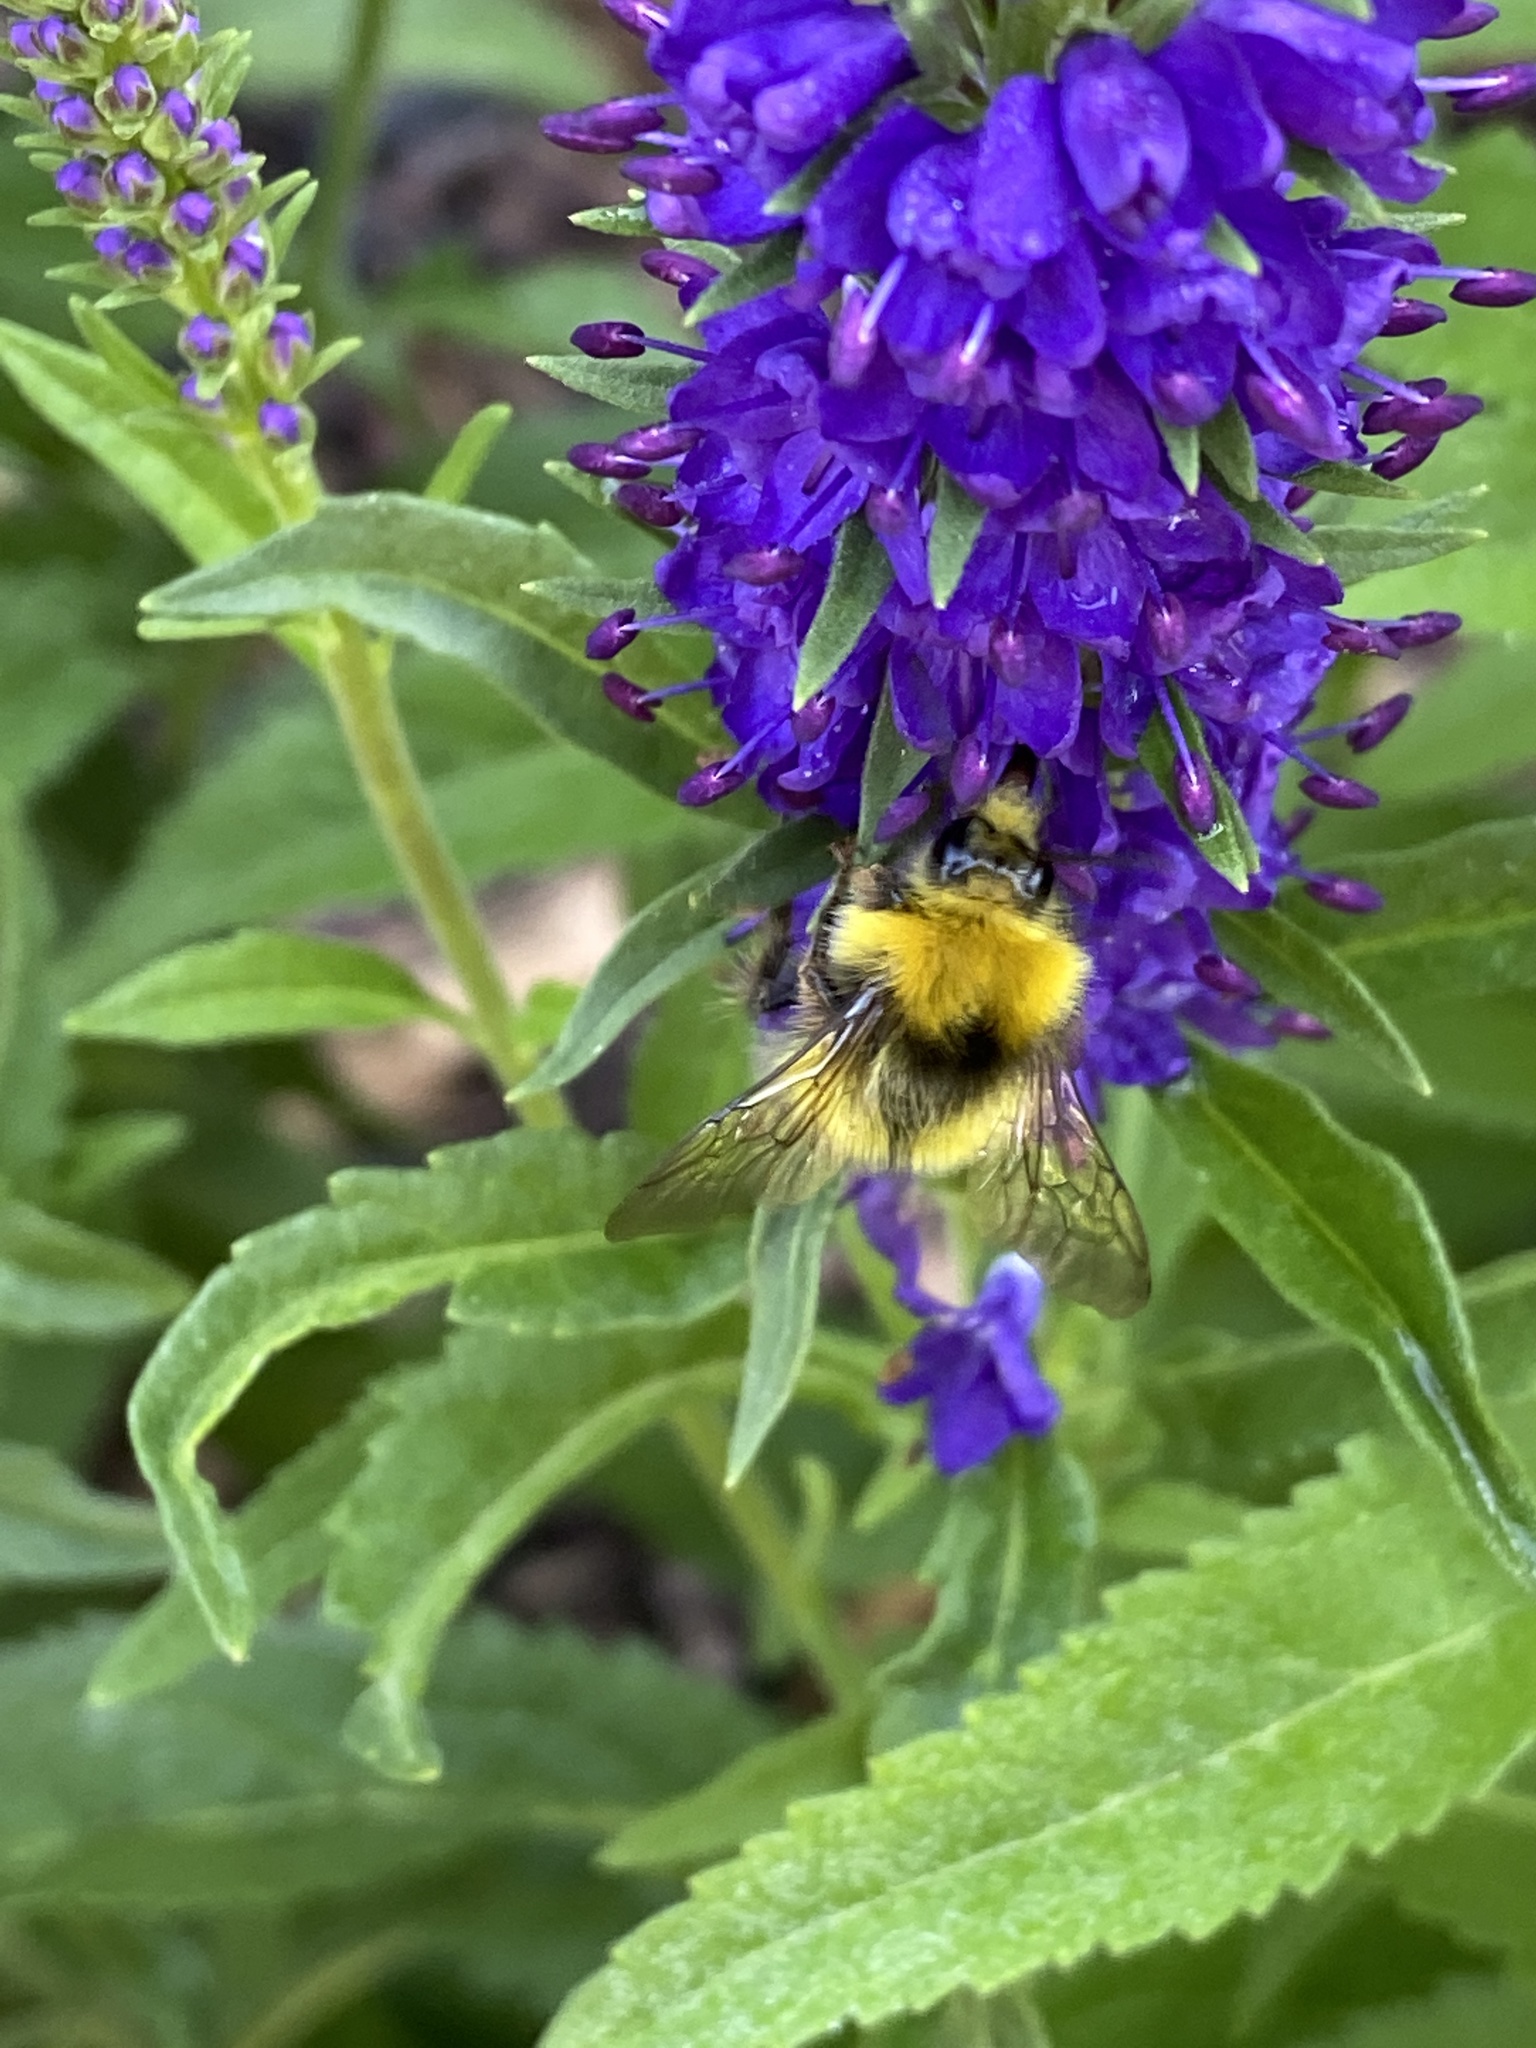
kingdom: Animalia
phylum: Arthropoda
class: Insecta
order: Hymenoptera
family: Apidae
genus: Bombus
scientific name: Bombus pratorum
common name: Early humble-bee
